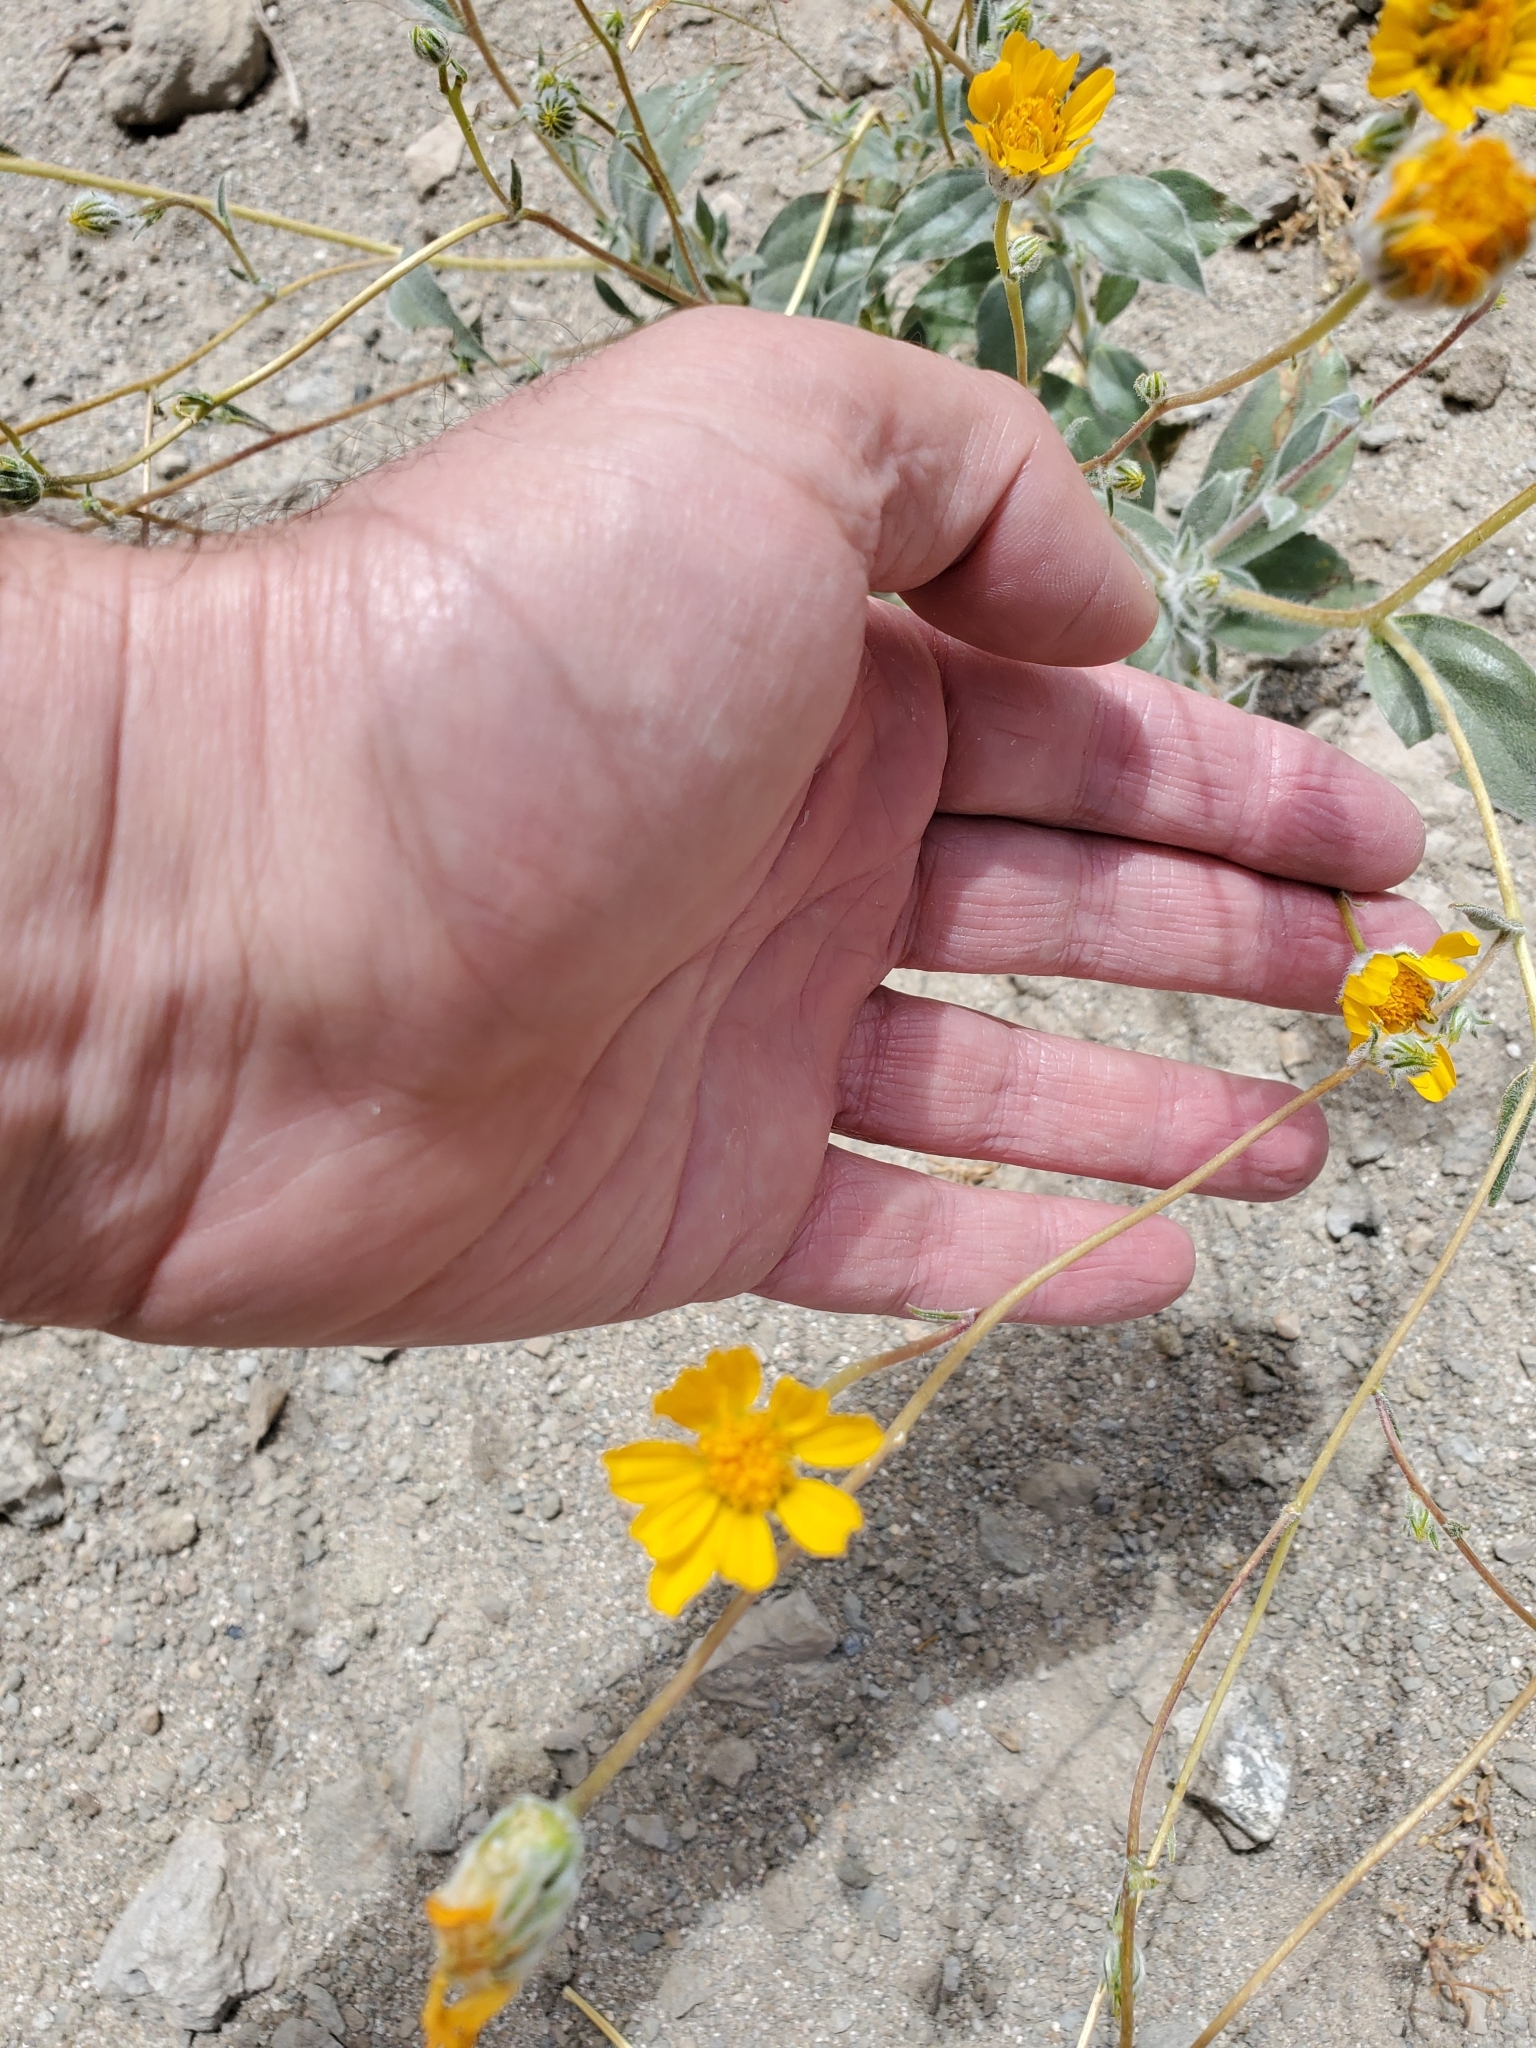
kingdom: Plantae
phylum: Tracheophyta
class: Magnoliopsida
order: Asterales
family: Asteraceae
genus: Geraea
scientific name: Geraea canescens
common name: Desert-gold
